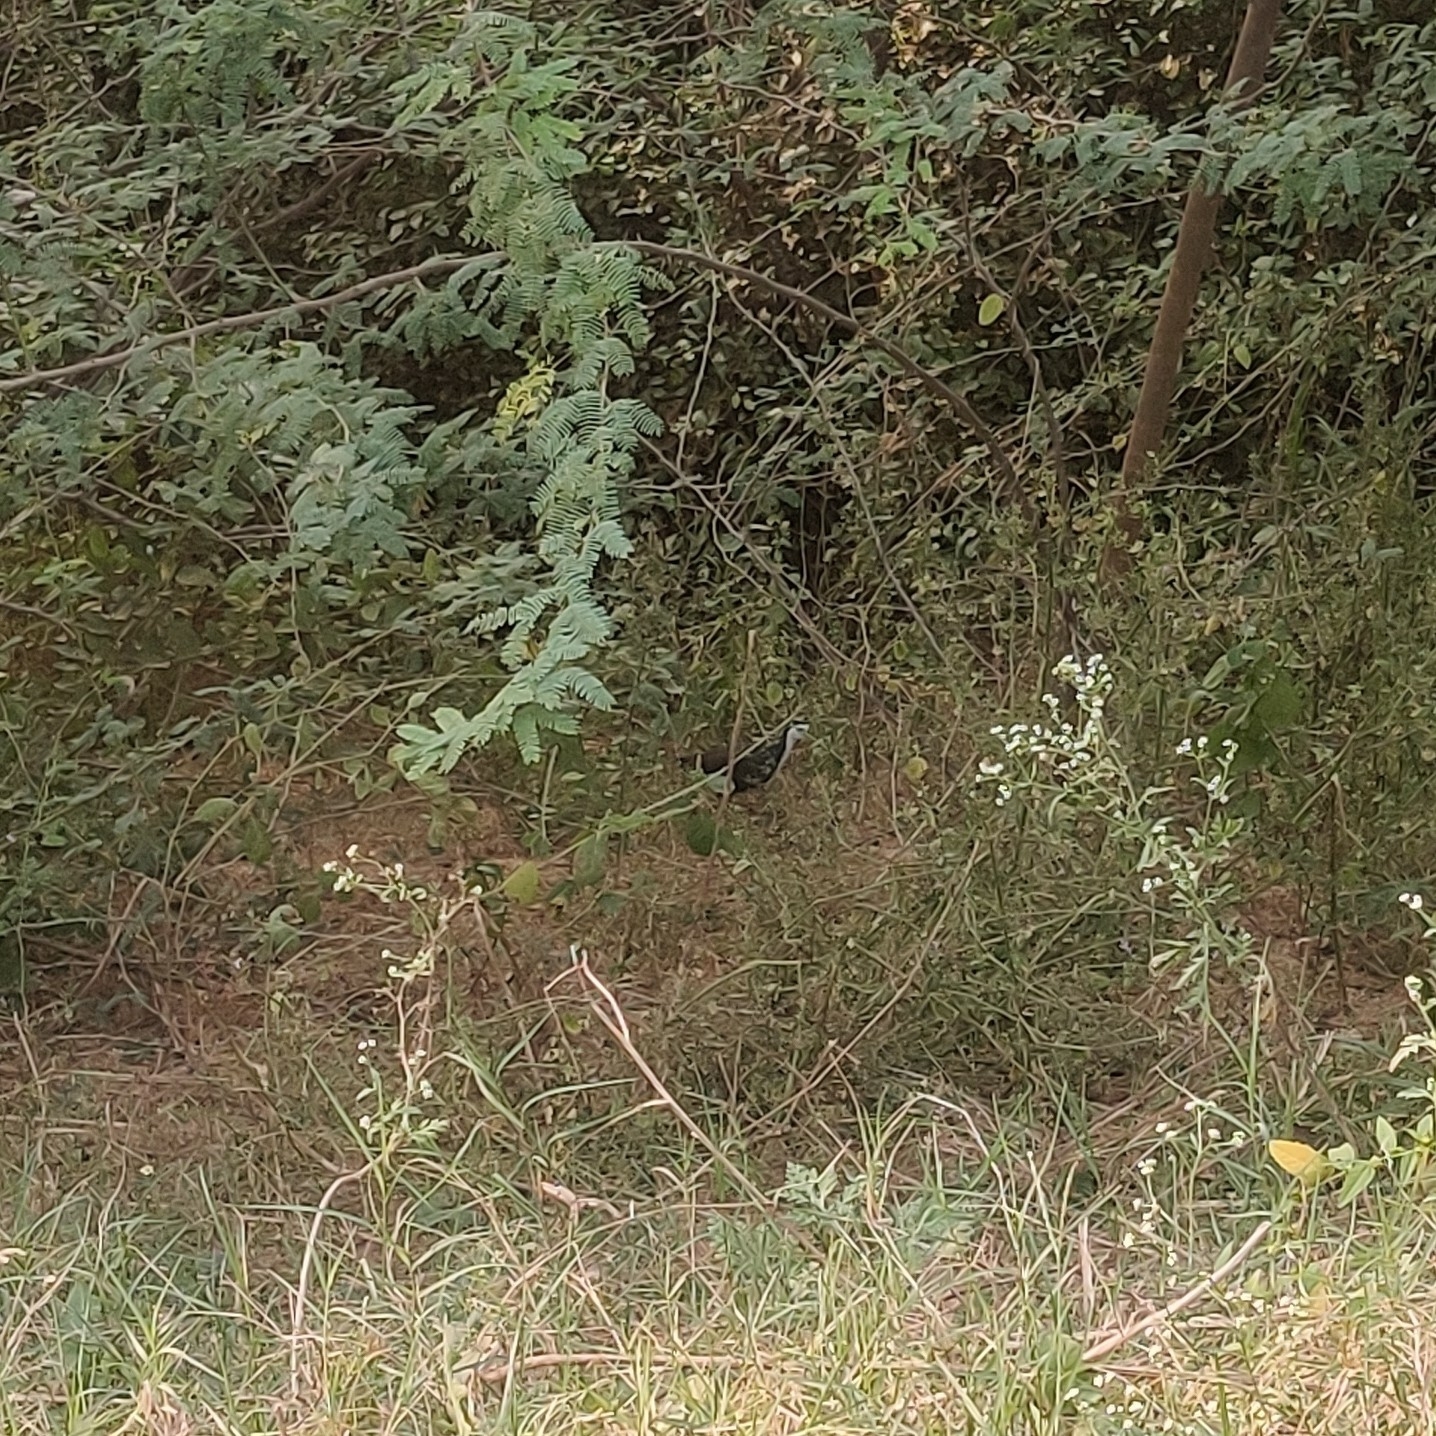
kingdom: Animalia
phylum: Chordata
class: Aves
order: Gruiformes
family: Rallidae
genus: Amaurornis
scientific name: Amaurornis phoenicurus
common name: White-breasted waterhen
